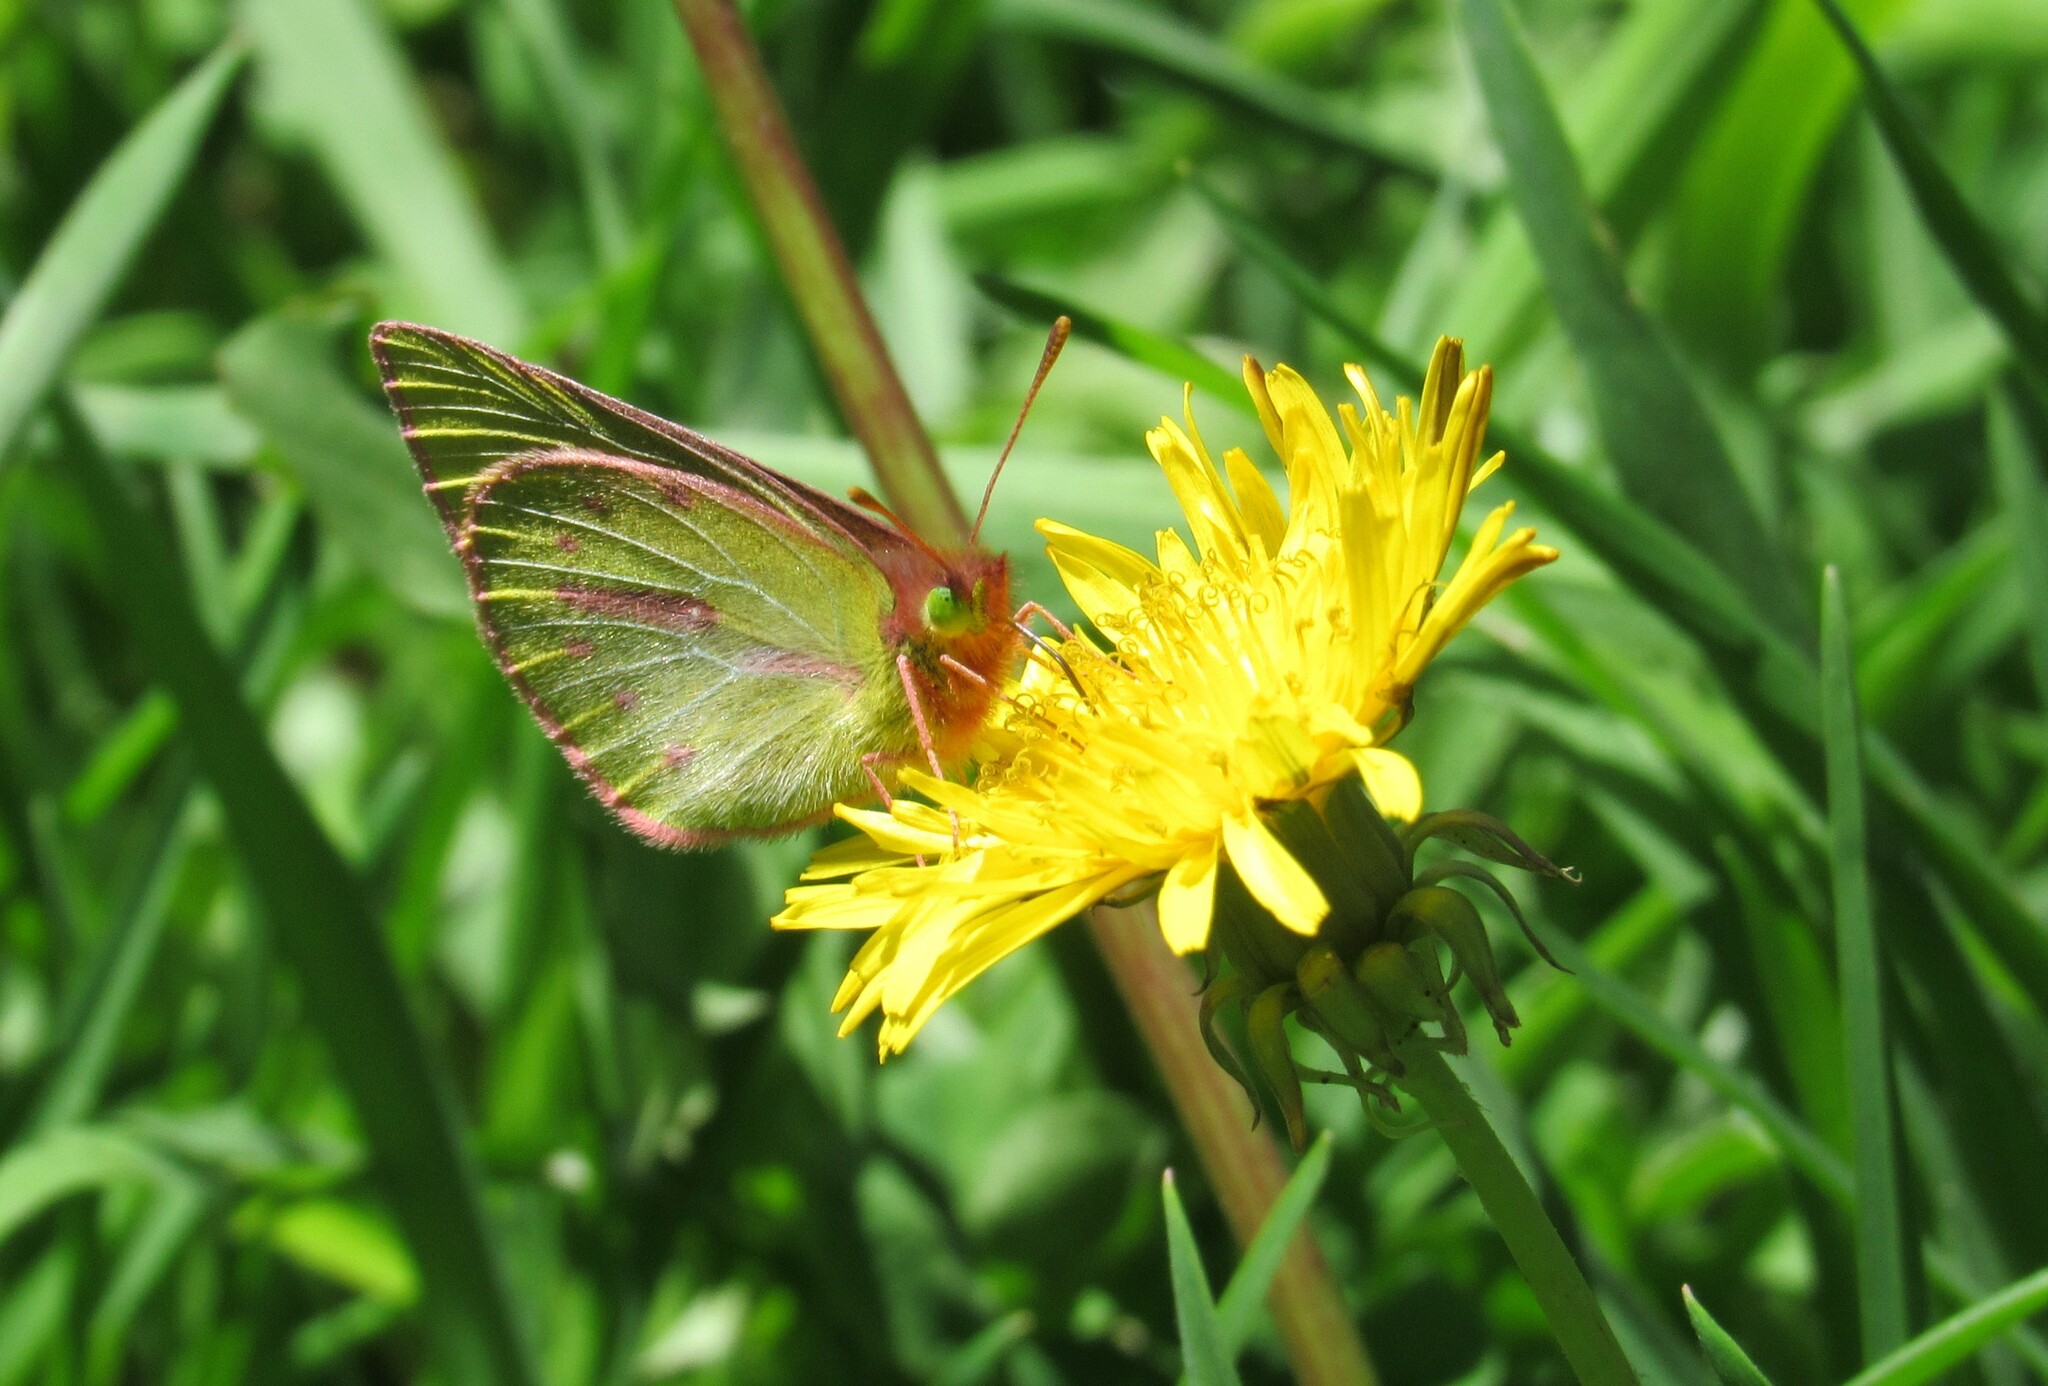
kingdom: Animalia
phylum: Arthropoda
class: Insecta
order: Lepidoptera
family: Pieridae
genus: Colias
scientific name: Colias dimera
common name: Dimera sulphur
